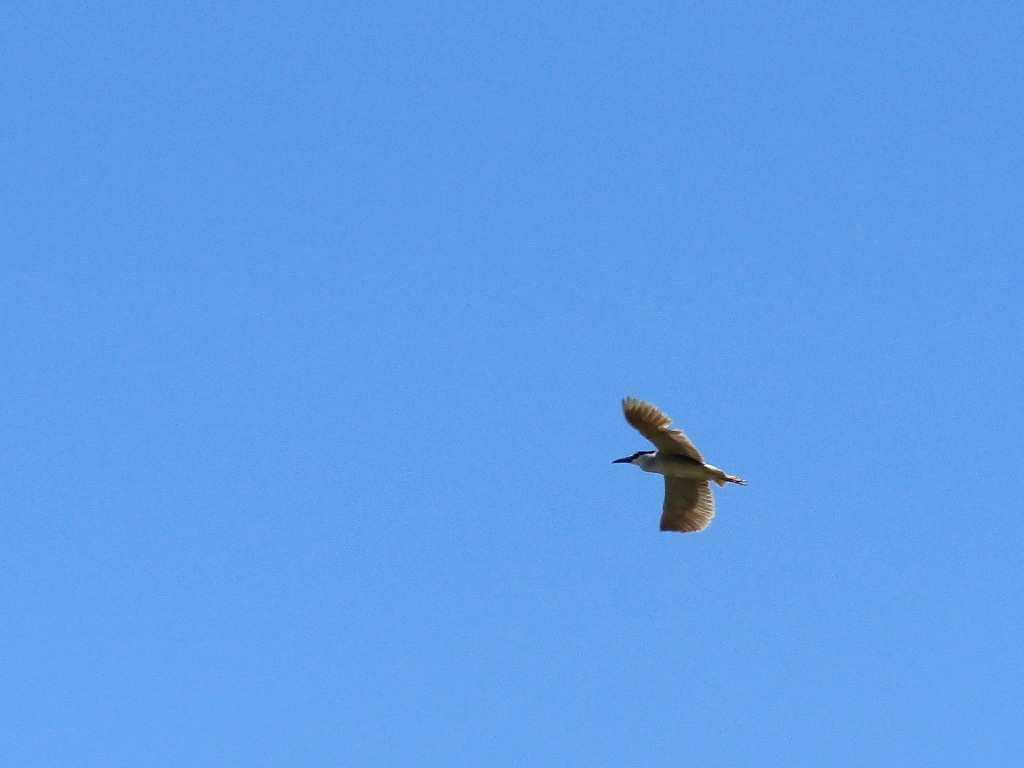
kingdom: Animalia
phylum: Chordata
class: Aves
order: Pelecaniformes
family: Ardeidae
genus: Nycticorax
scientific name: Nycticorax nycticorax
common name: Black-crowned night heron
